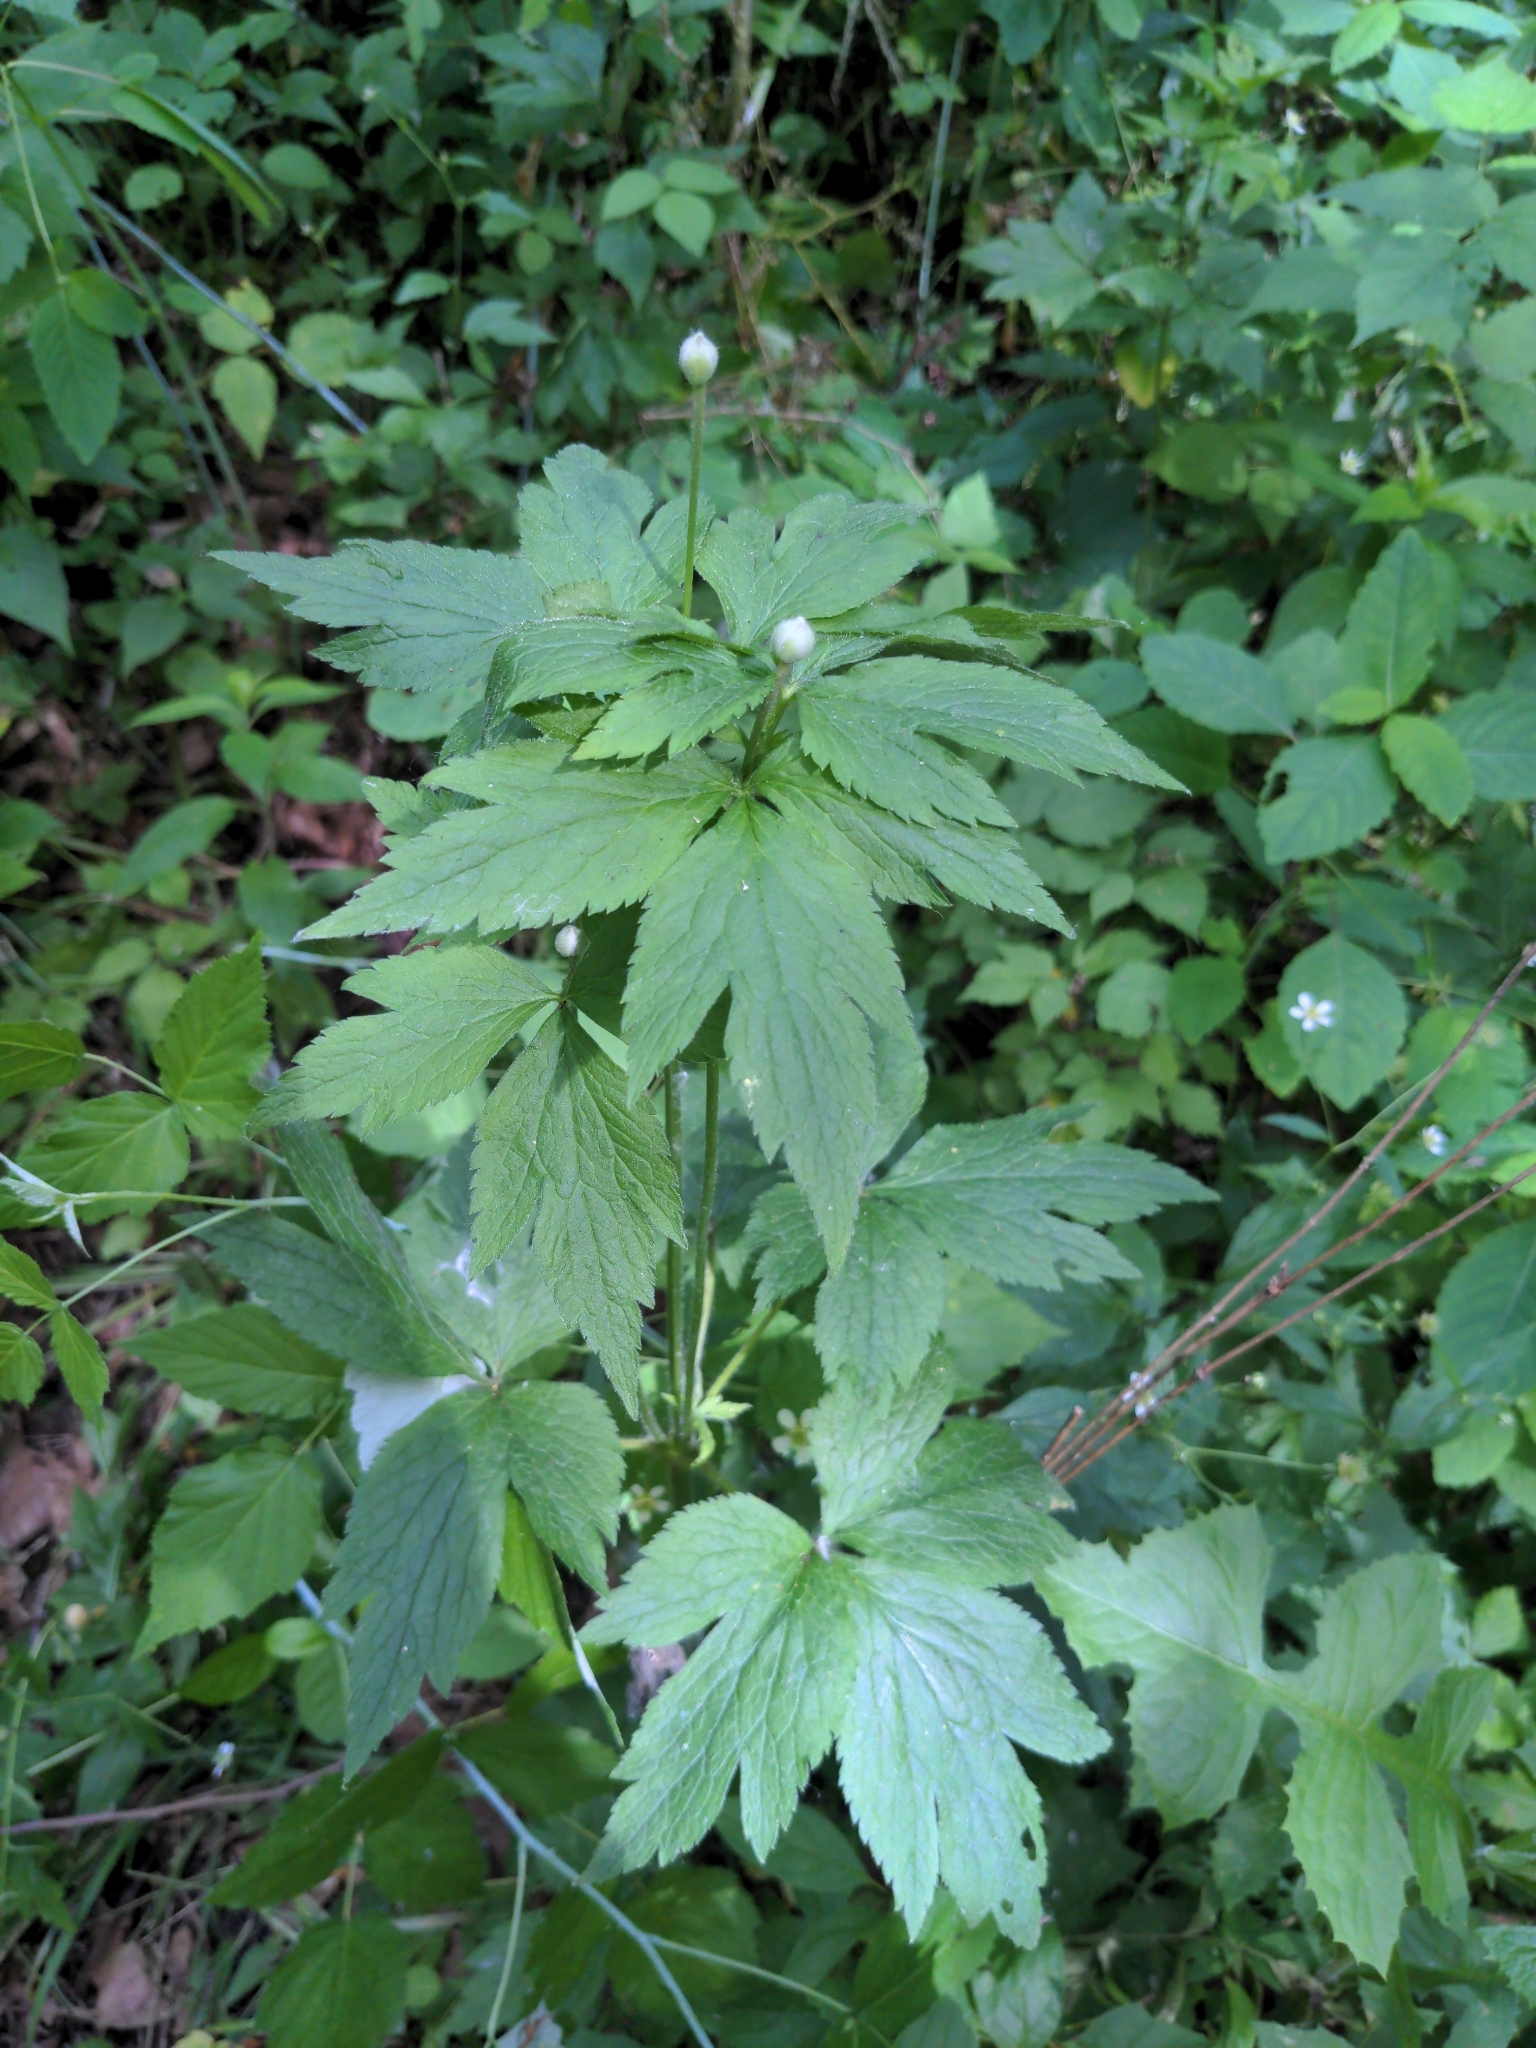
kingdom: Plantae
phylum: Tracheophyta
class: Magnoliopsida
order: Ranunculales
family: Ranunculaceae
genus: Anemone
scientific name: Anemone virginiana
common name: Tall anemone
